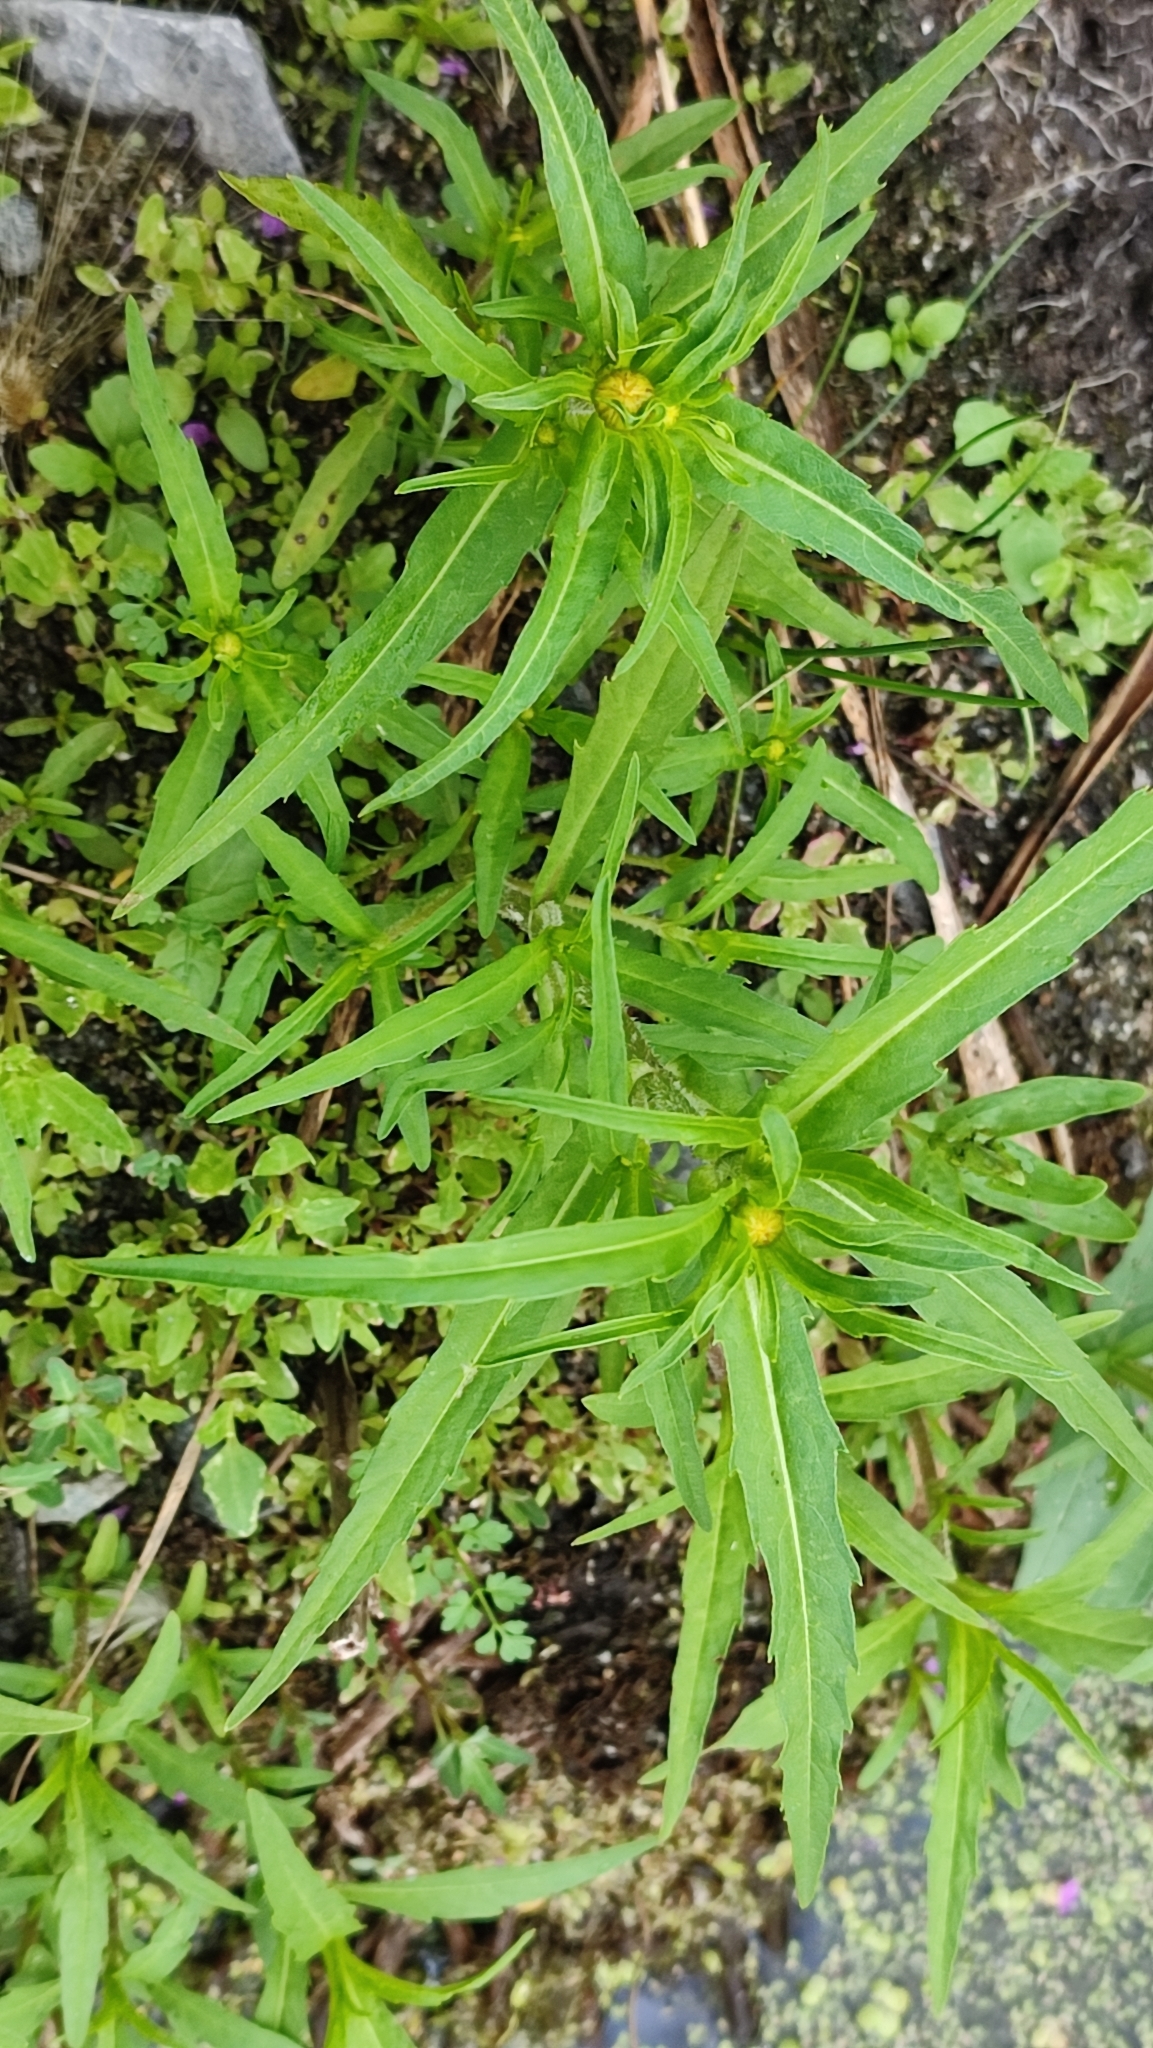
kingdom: Plantae
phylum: Tracheophyta
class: Magnoliopsida
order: Asterales
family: Asteraceae
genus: Bidens
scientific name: Bidens radiata
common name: Radiating bur-marigold
